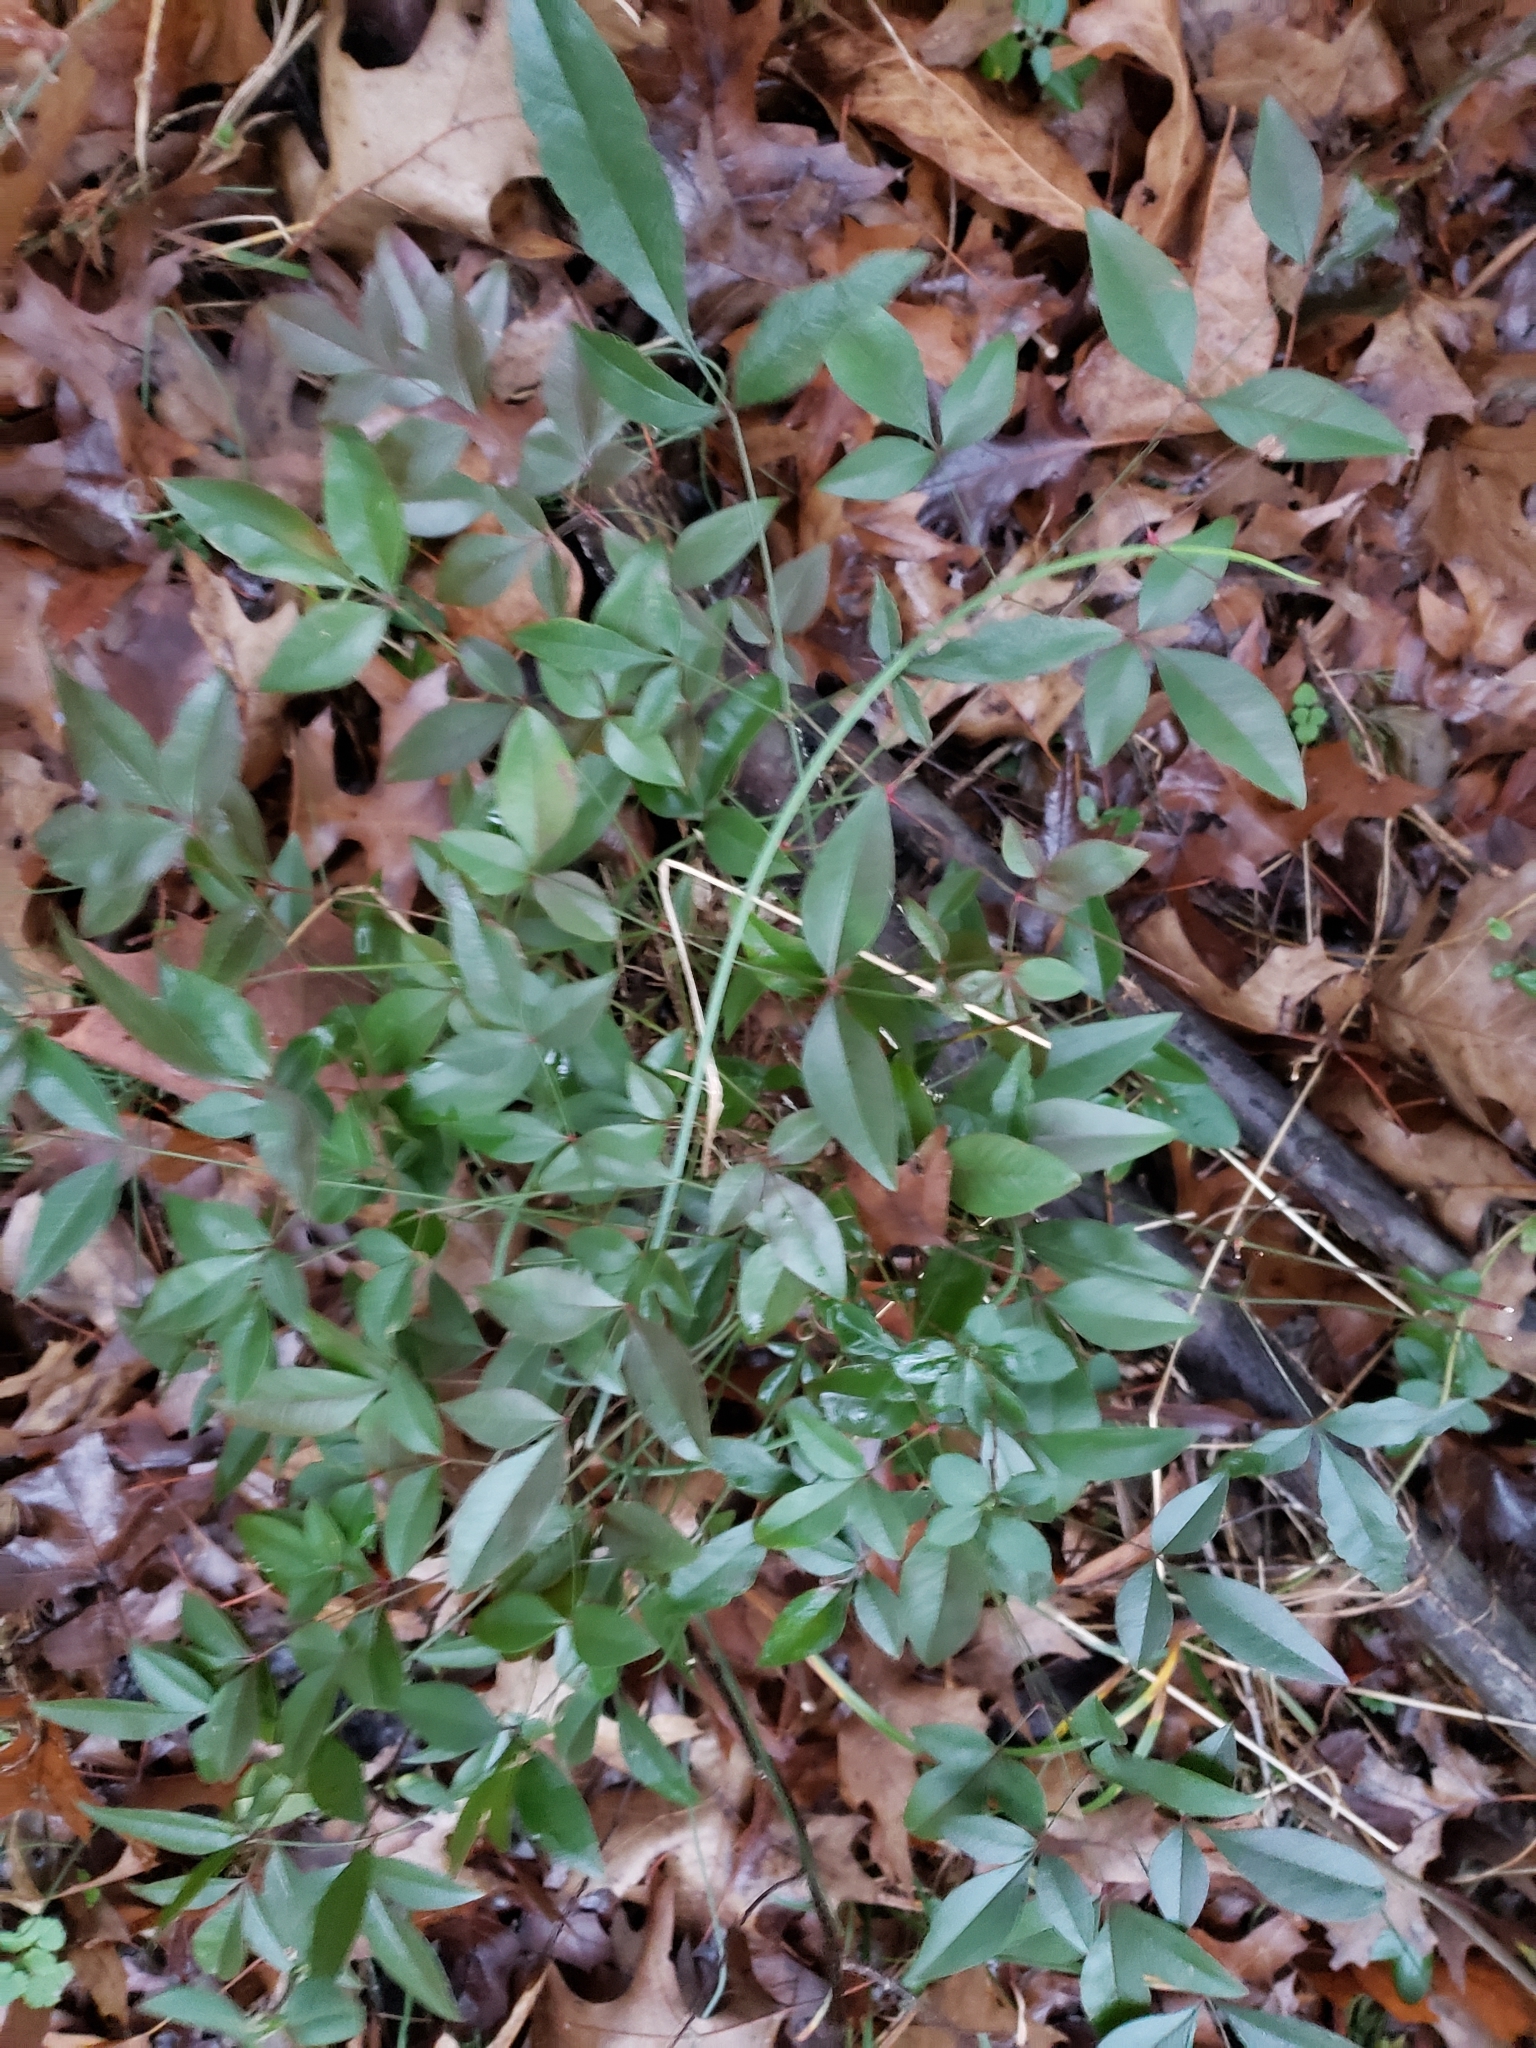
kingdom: Plantae
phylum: Tracheophyta
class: Magnoliopsida
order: Ranunculales
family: Berberidaceae
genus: Nandina
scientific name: Nandina domestica
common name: Sacred bamboo
